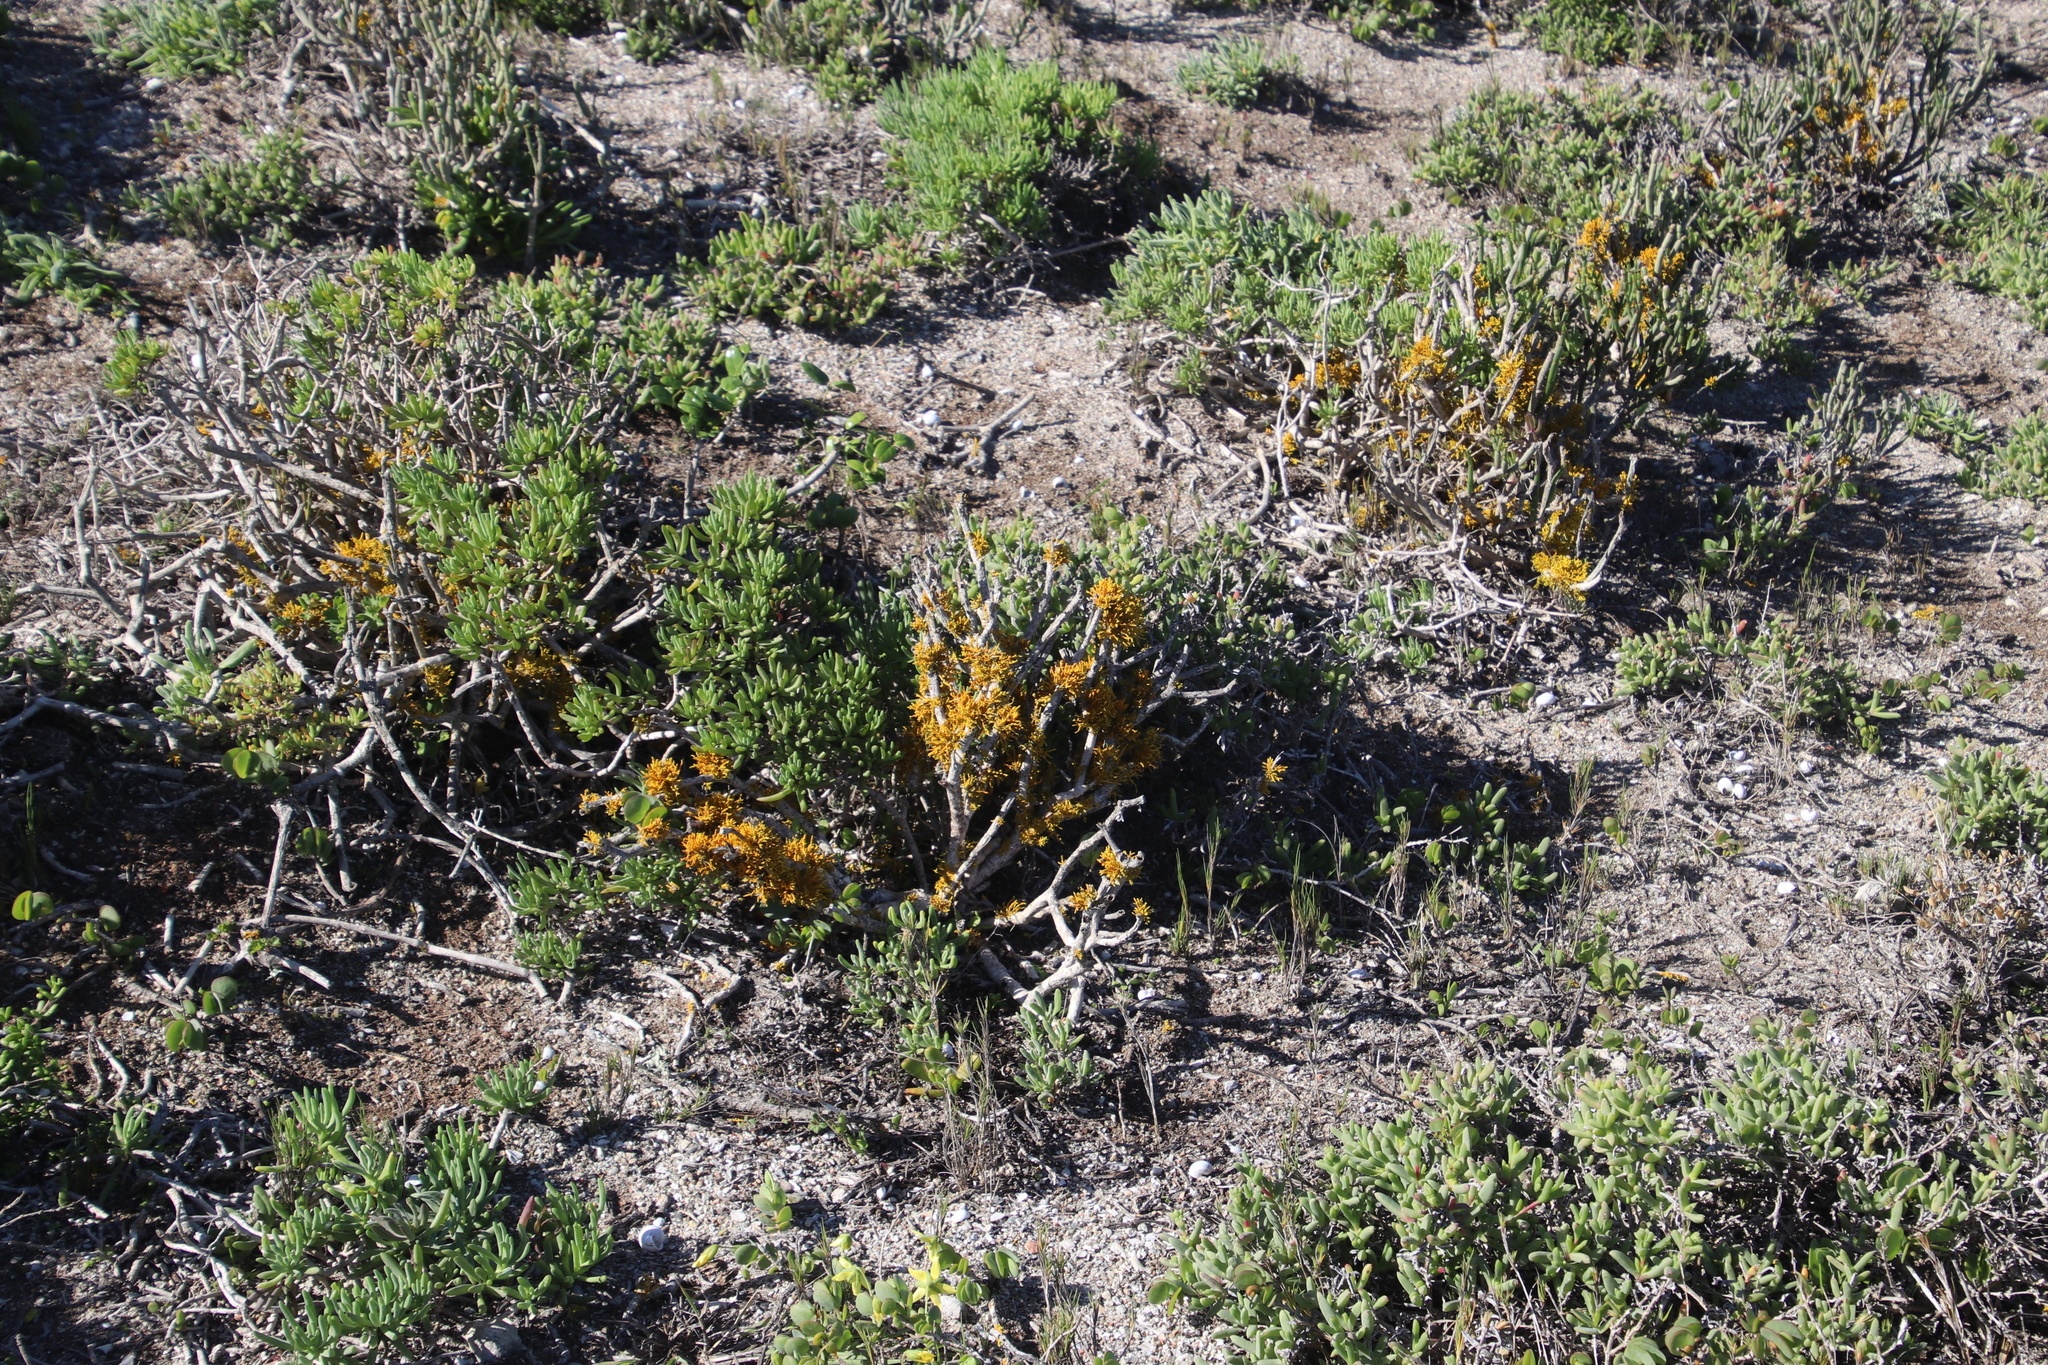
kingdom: Fungi
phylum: Ascomycota
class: Lecanoromycetes
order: Teloschistales
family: Teloschistaceae
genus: Dufourea
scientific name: Dufourea flammea
